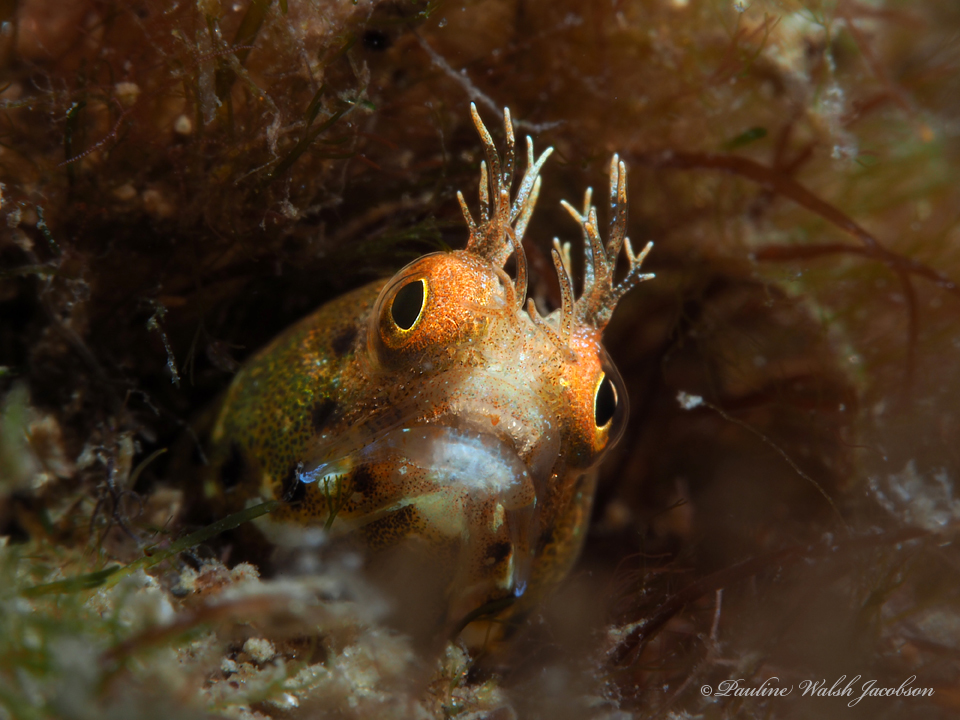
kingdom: Animalia
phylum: Chordata
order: Perciformes
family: Chaenopsidae
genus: Acanthemblemaria
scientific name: Acanthemblemaria aspera
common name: Roughhead blenny
